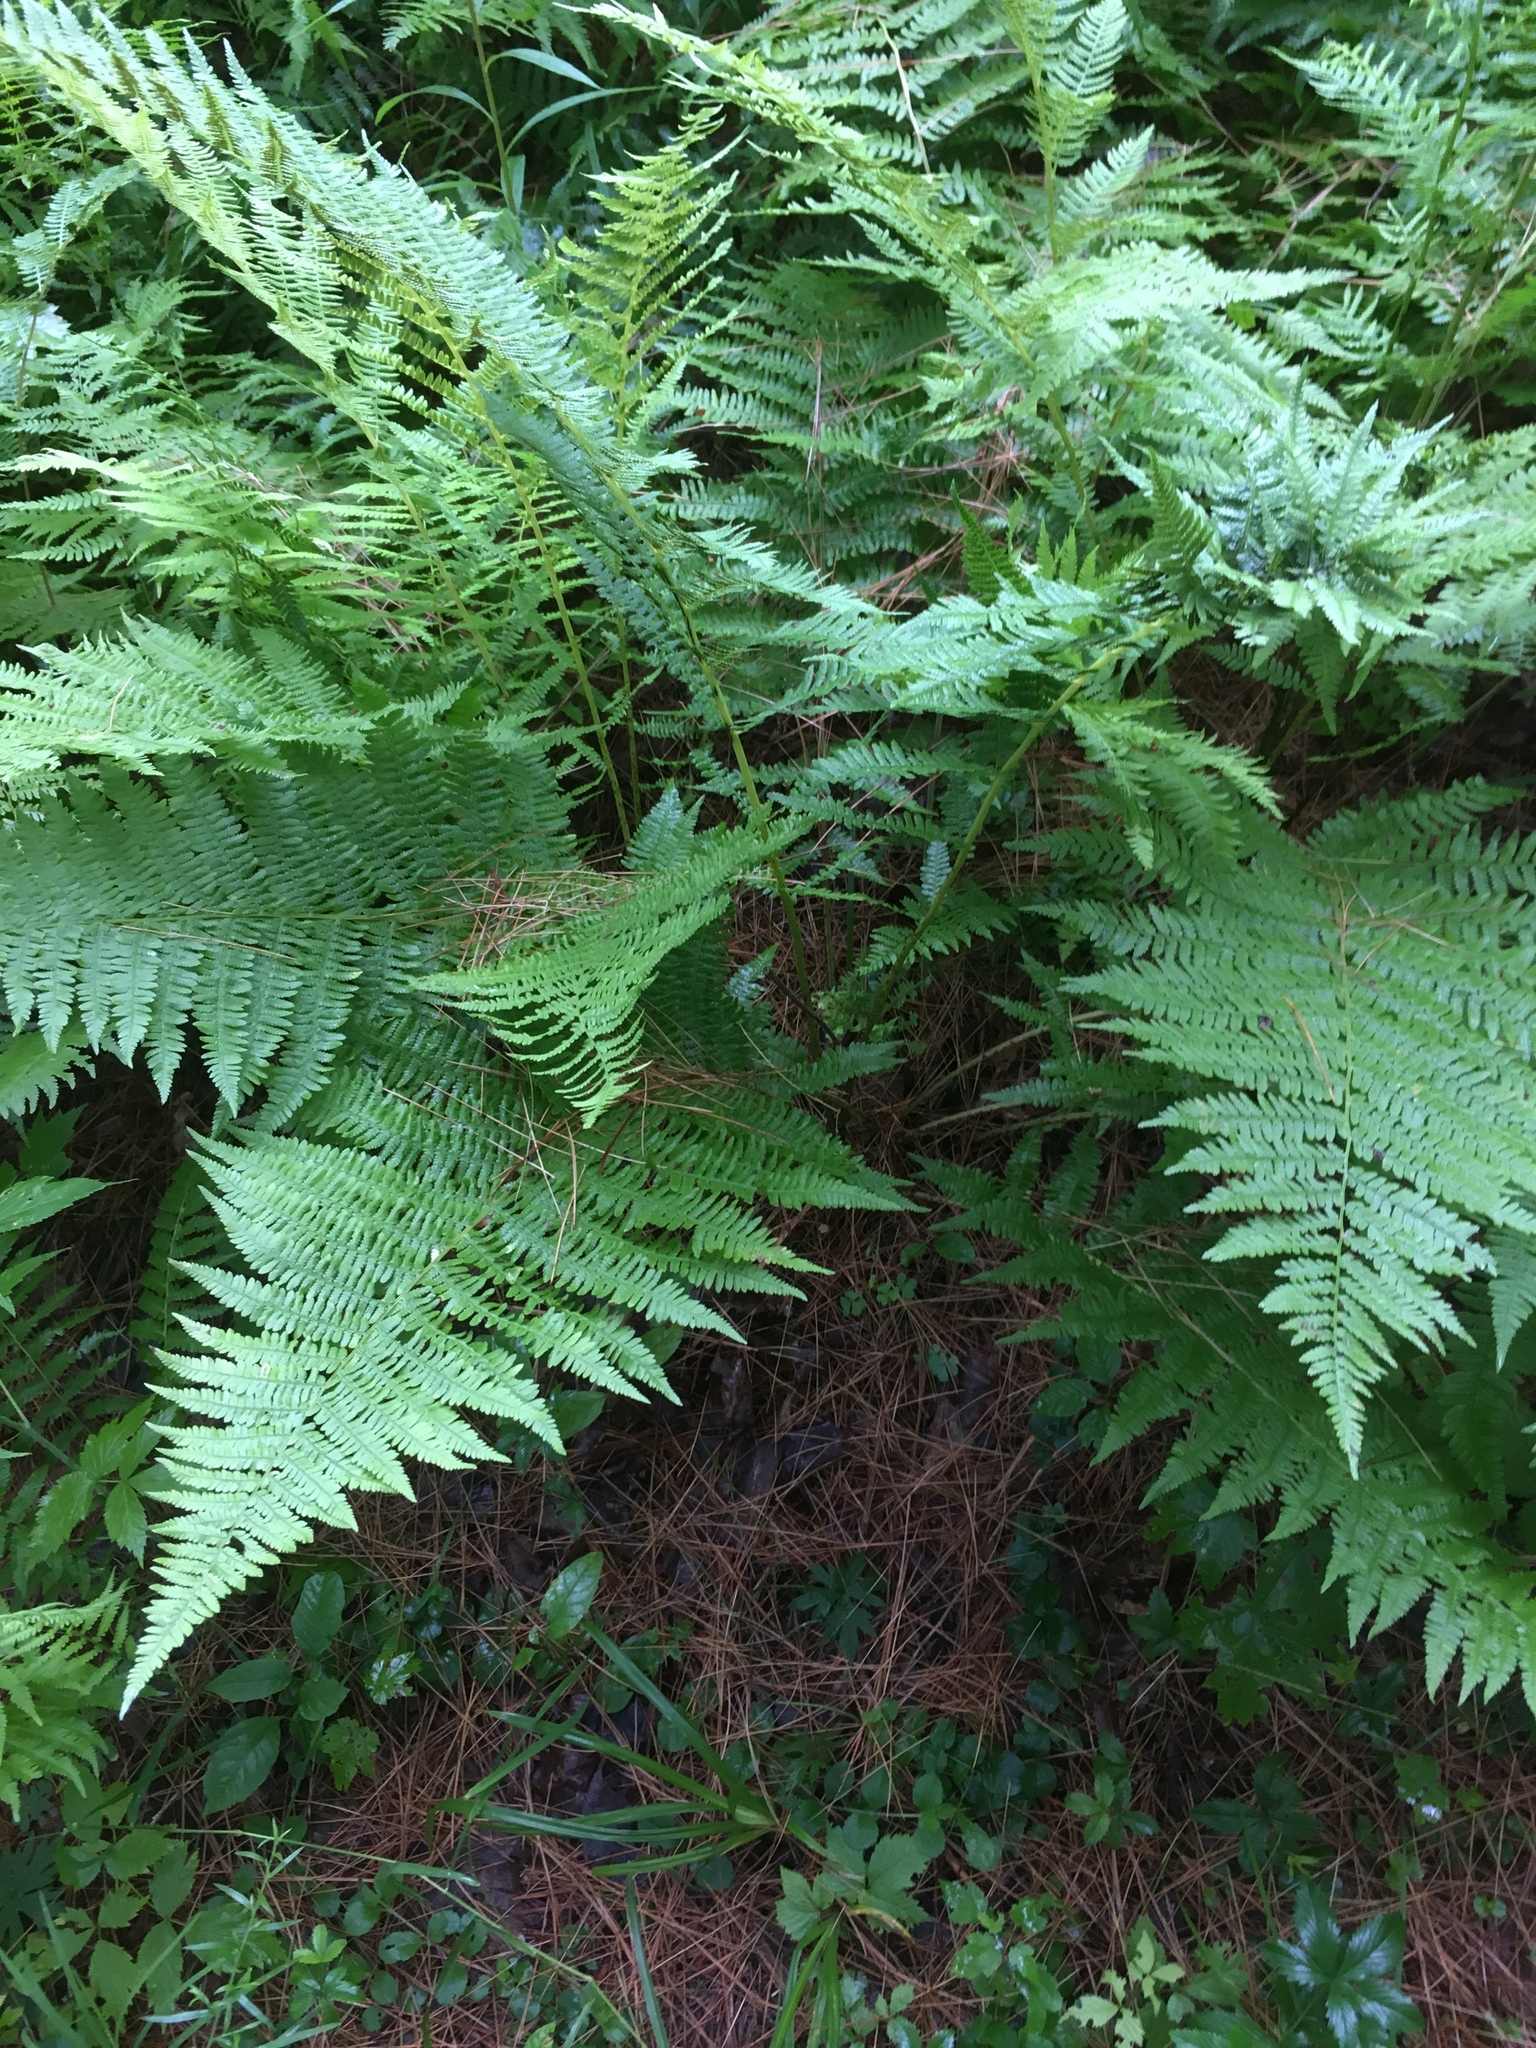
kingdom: Plantae
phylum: Tracheophyta
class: Polypodiopsida
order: Polypodiales
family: Athyriaceae
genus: Athyrium
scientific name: Athyrium angustum
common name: Northern lady fern
